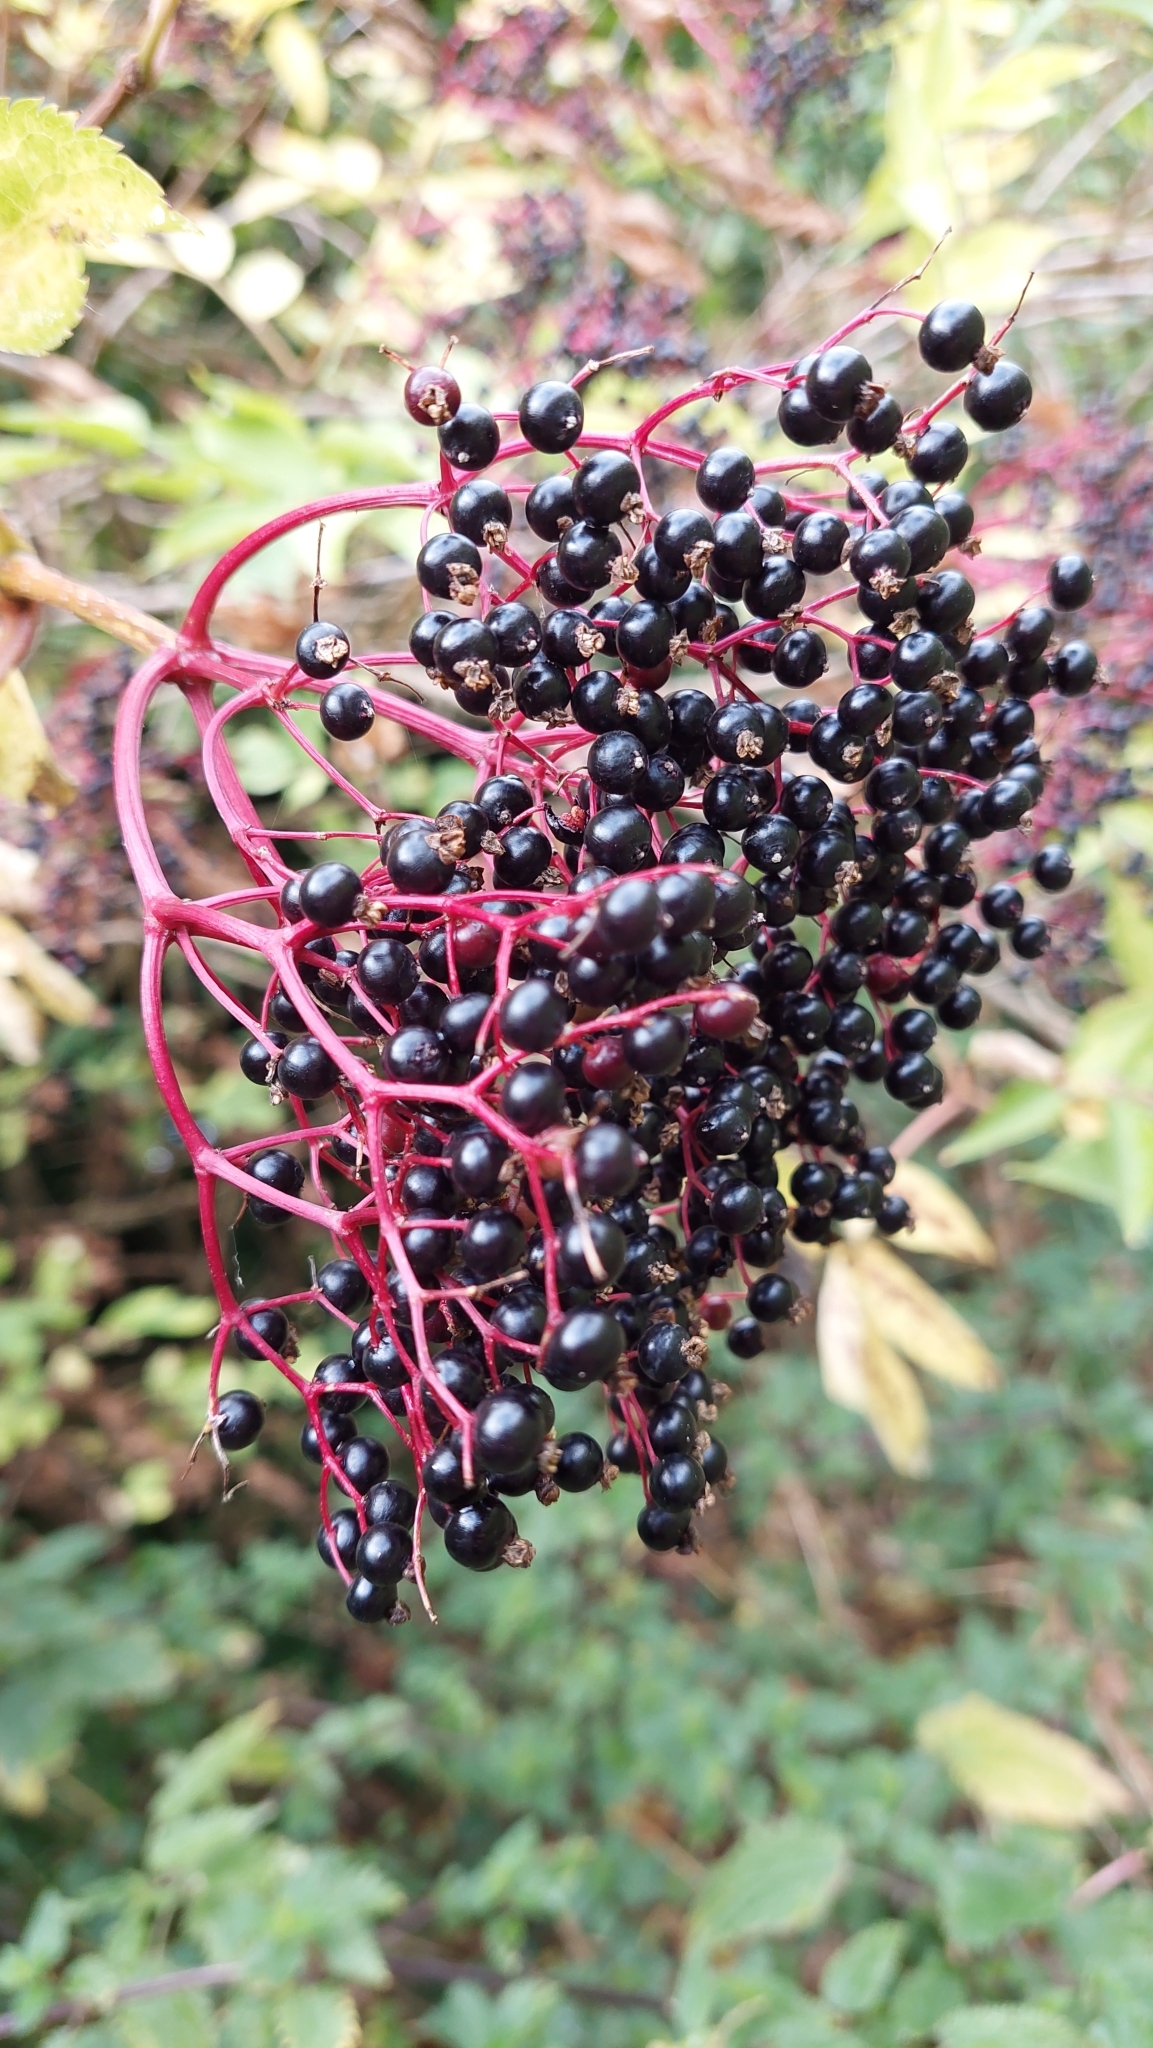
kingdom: Plantae
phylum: Tracheophyta
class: Magnoliopsida
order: Dipsacales
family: Viburnaceae
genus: Sambucus
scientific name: Sambucus nigra
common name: Elder
